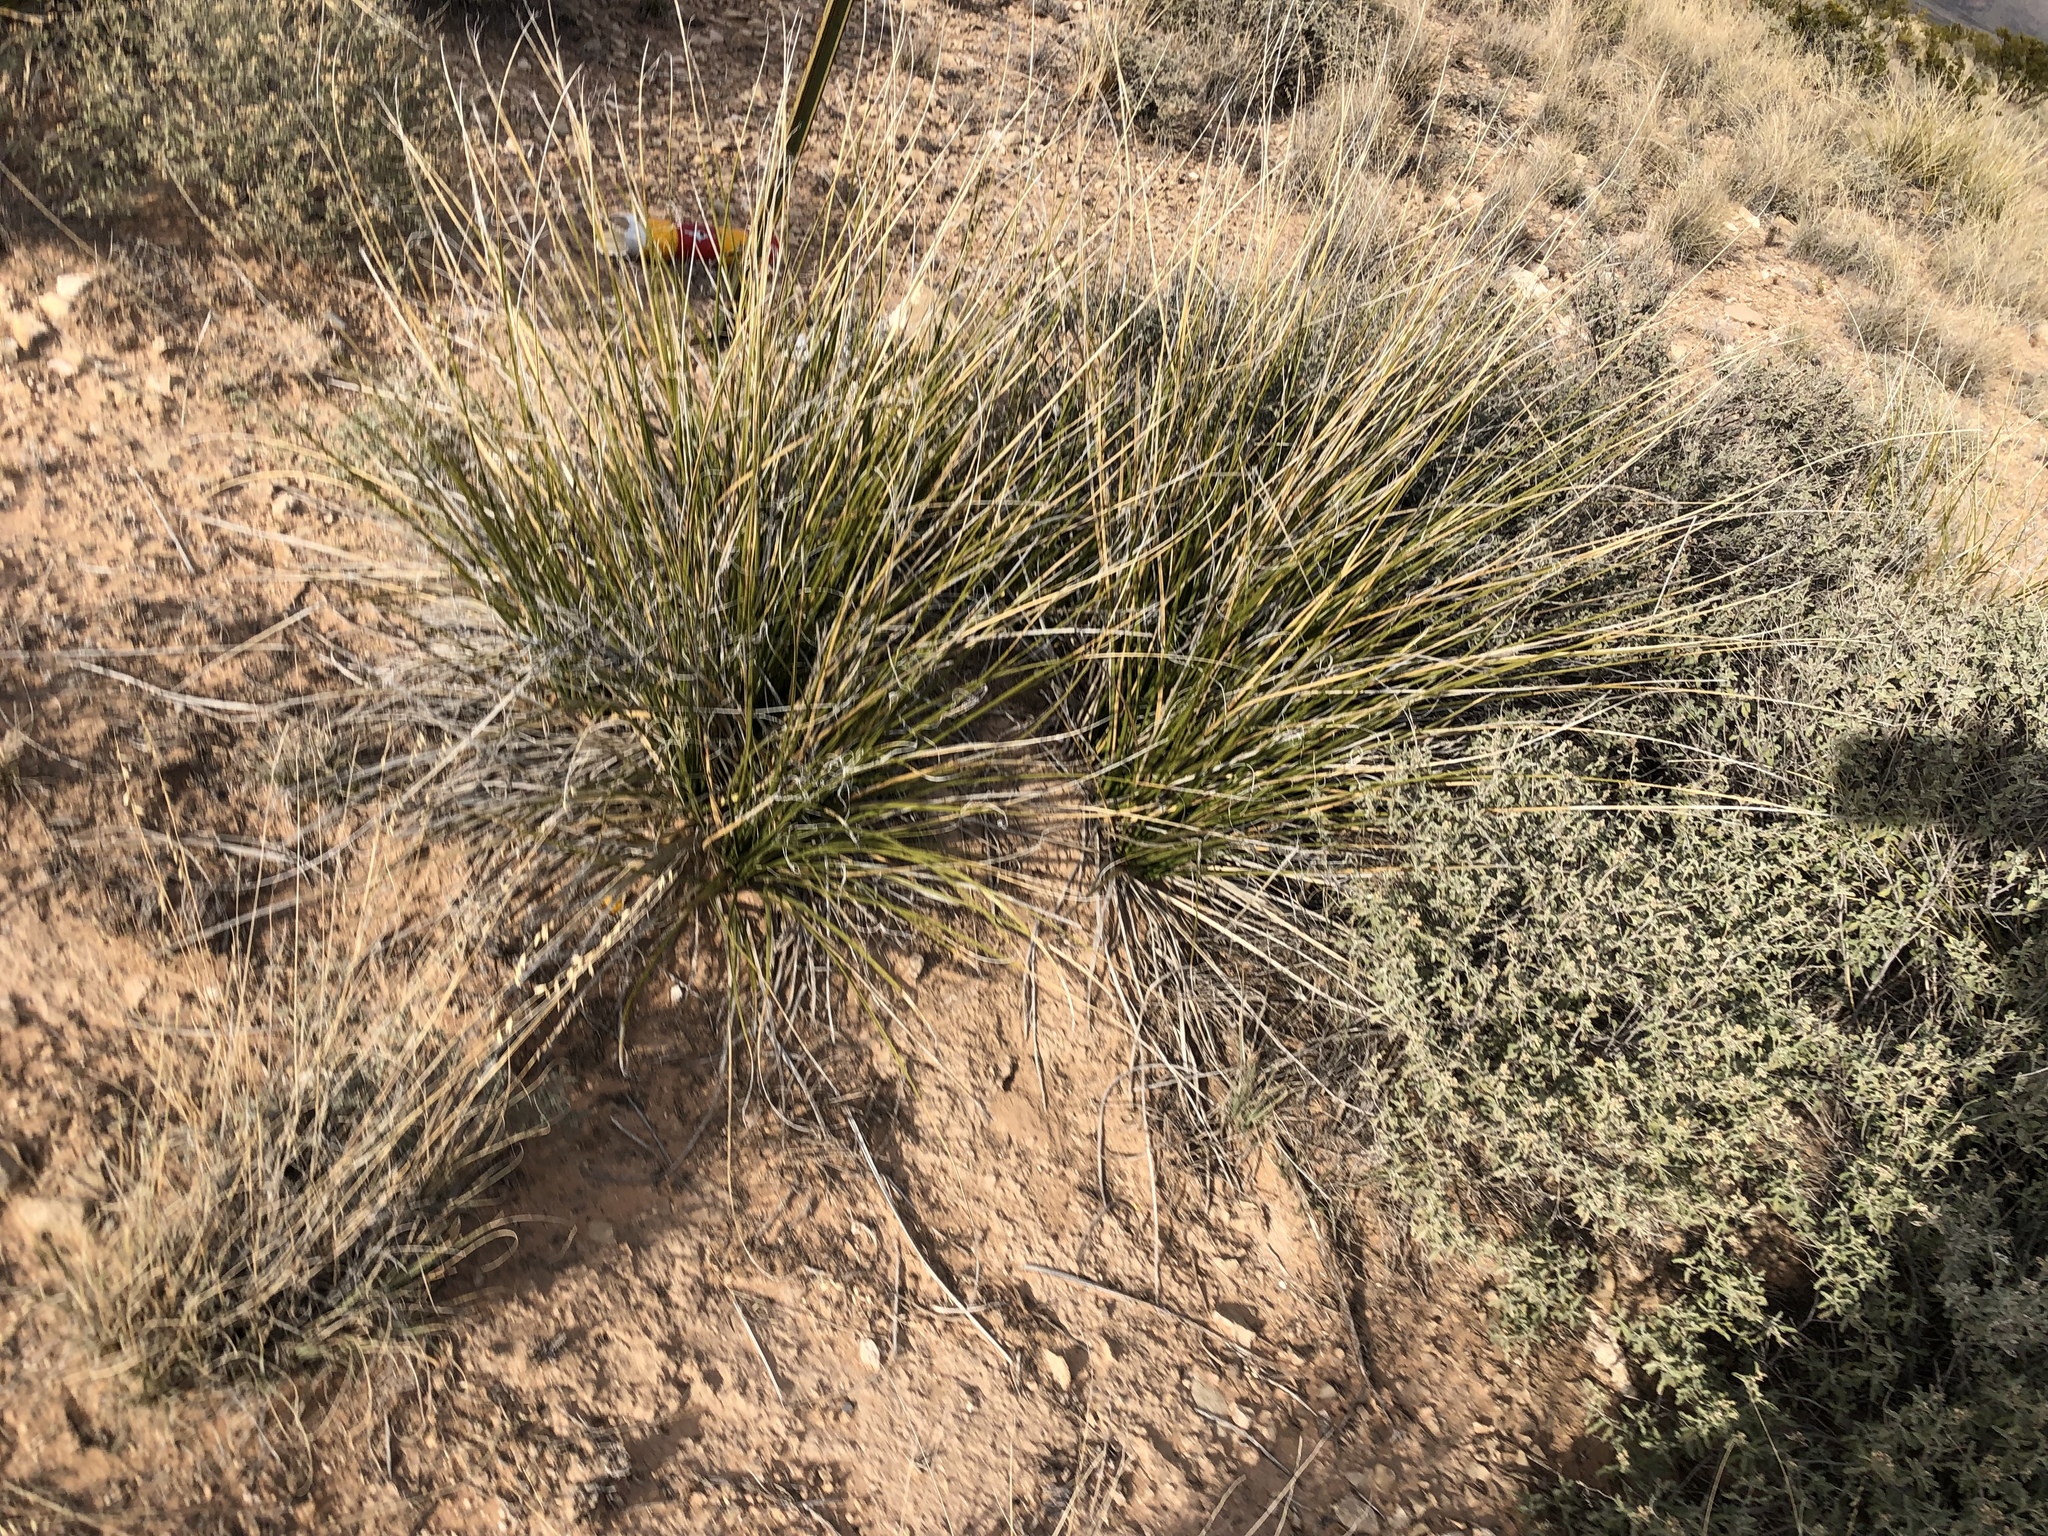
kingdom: Plantae
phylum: Tracheophyta
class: Liliopsida
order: Asparagales
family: Asparagaceae
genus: Nolina
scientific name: Nolina texana
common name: Texas sacahuiste
